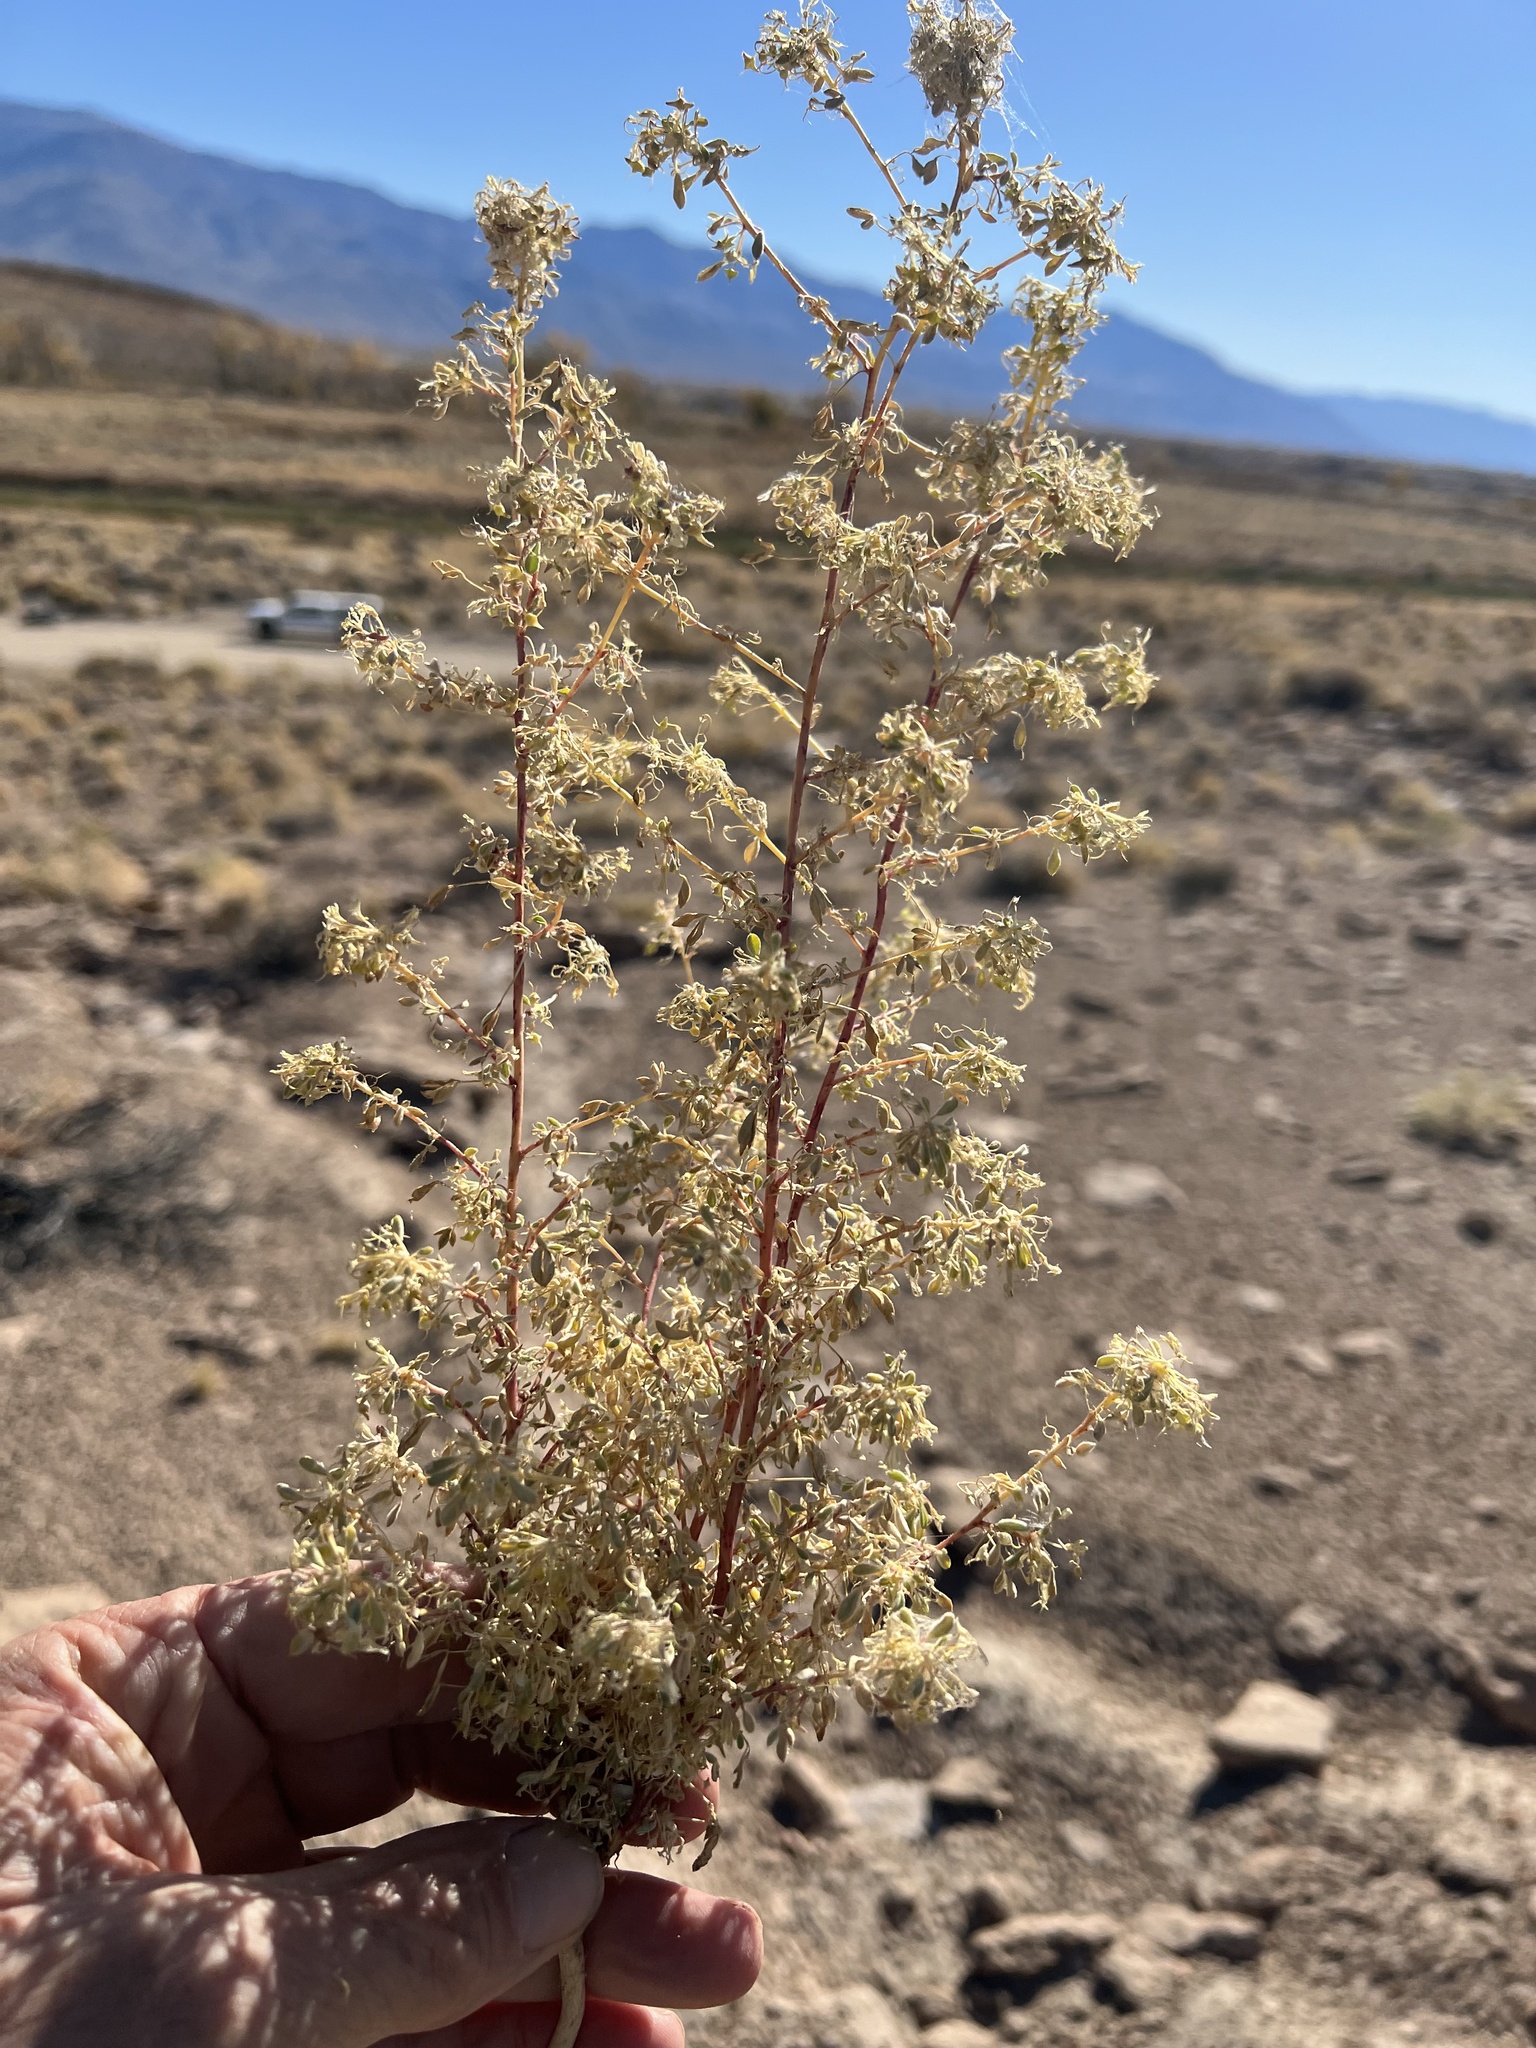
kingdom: Plantae
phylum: Tracheophyta
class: Magnoliopsida
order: Brassicales
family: Cleomaceae
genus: Cleomella
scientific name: Cleomella obtusifolia
